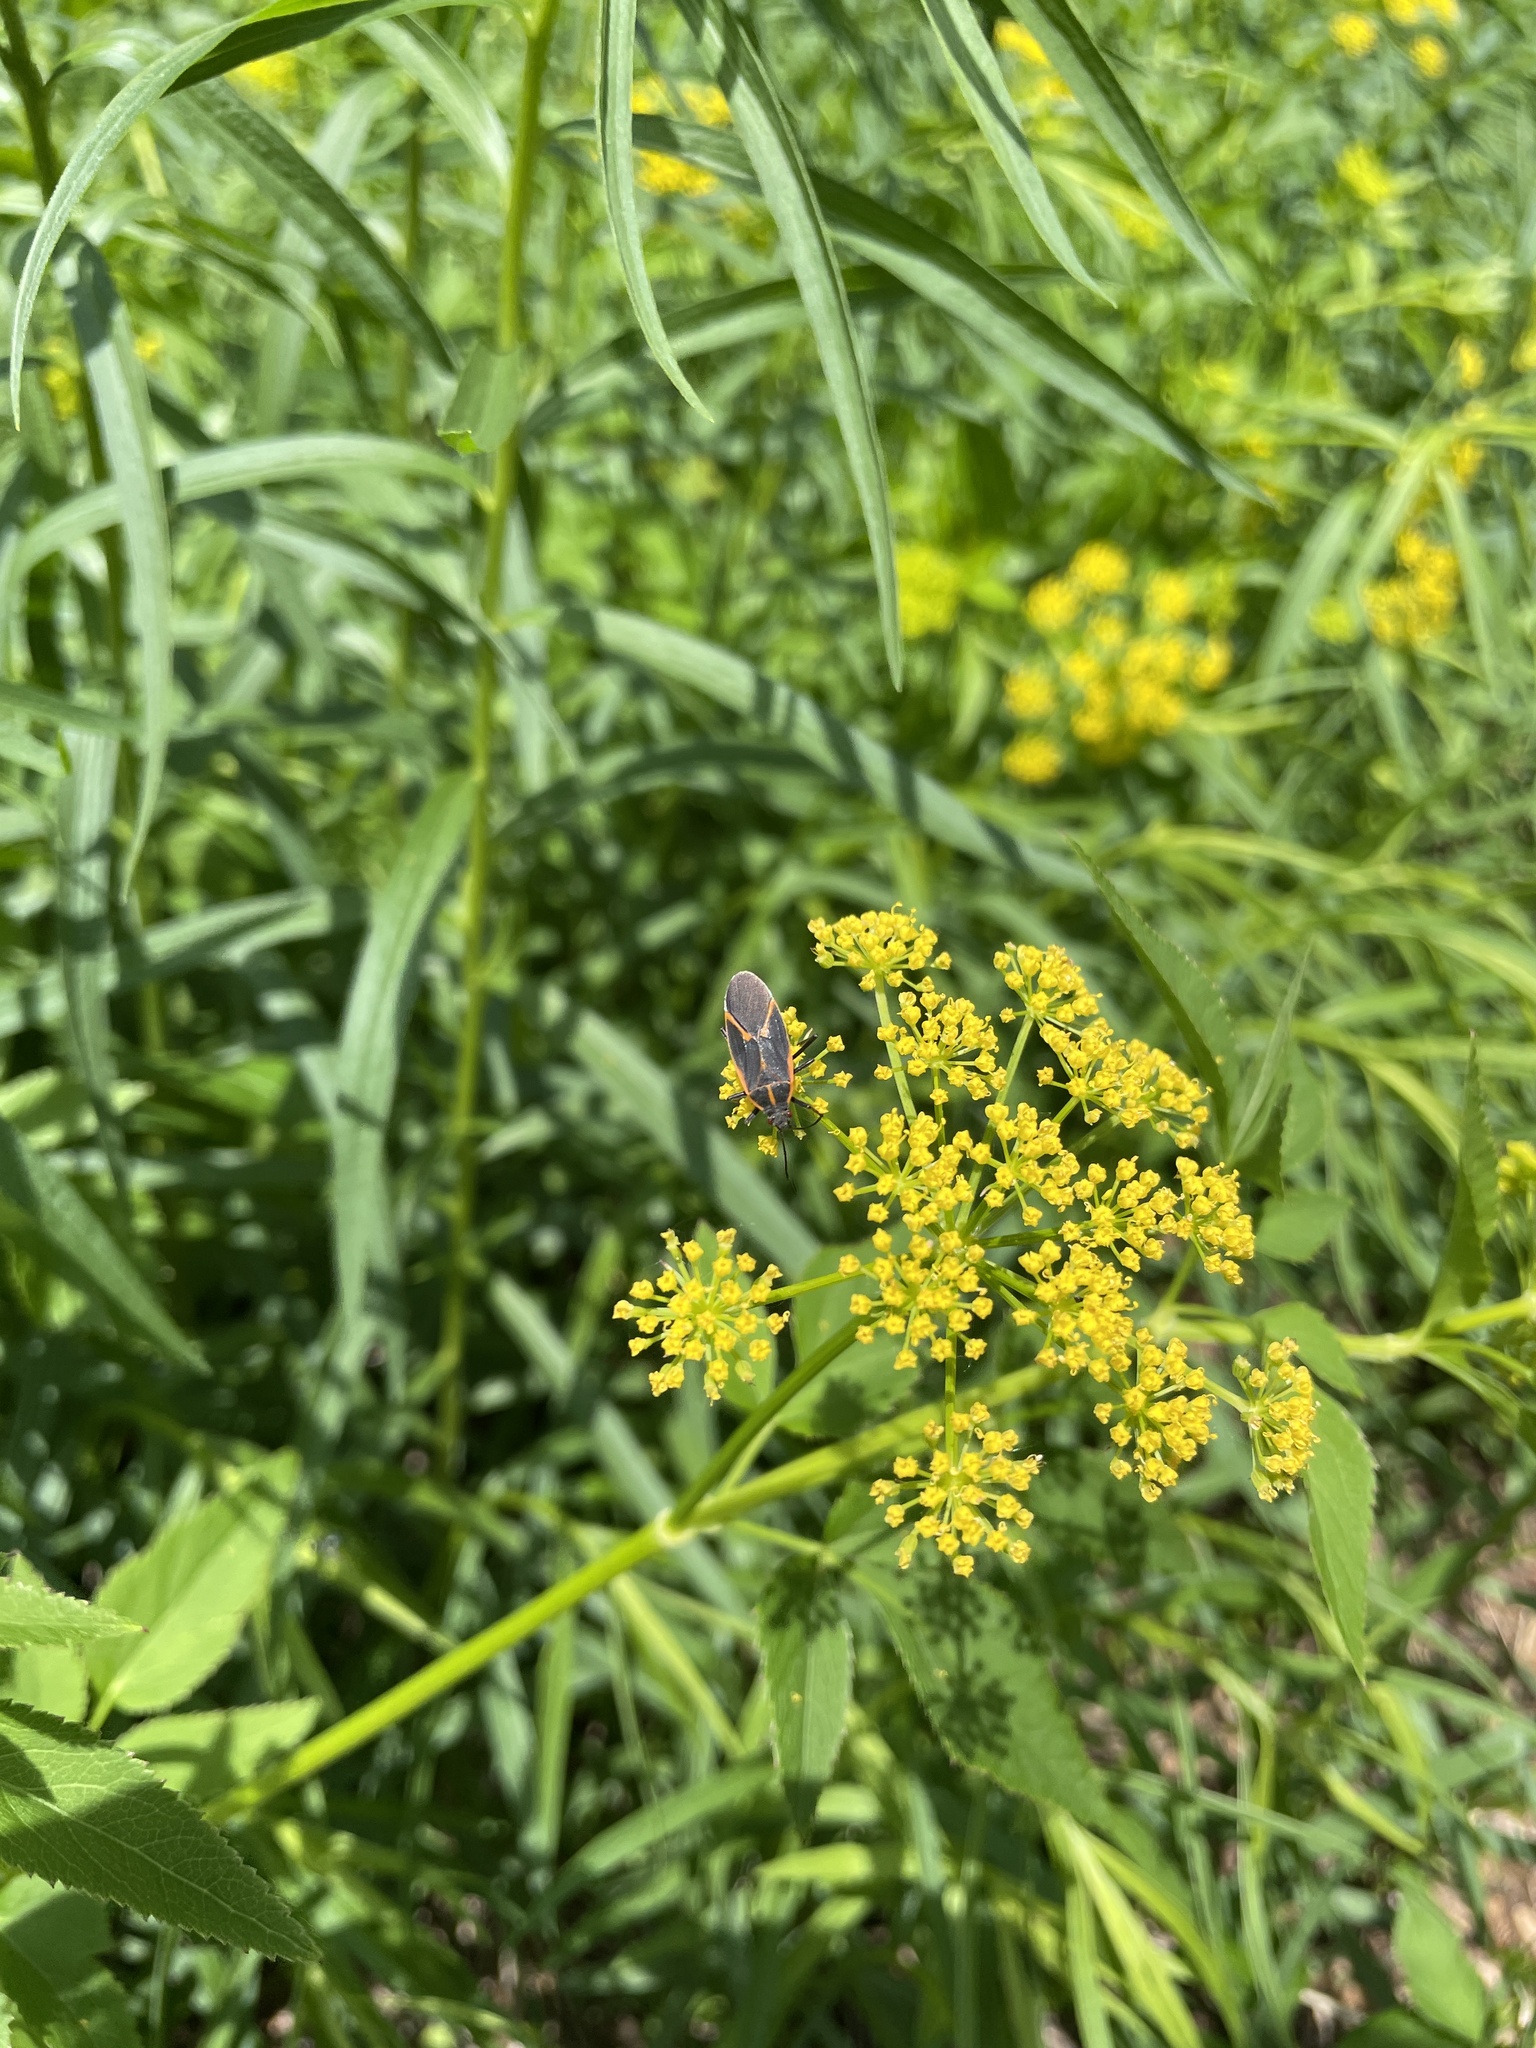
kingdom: Animalia
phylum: Arthropoda
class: Insecta
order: Hemiptera
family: Rhopalidae
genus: Boisea
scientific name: Boisea trivittata
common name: Boxelder bug
